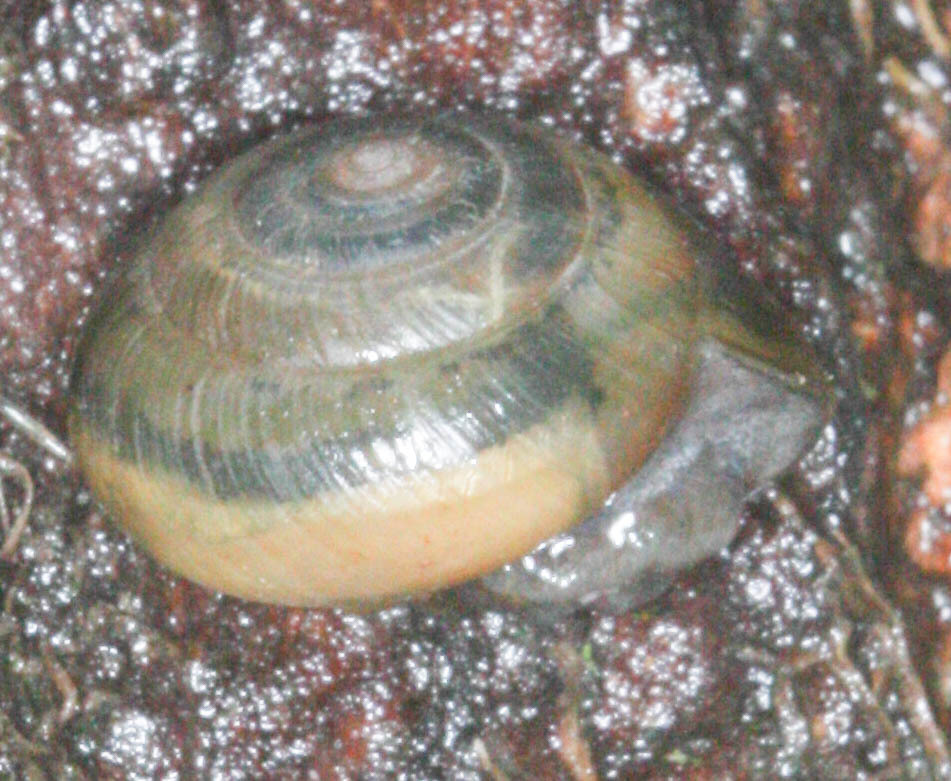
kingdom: Animalia
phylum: Chordata
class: Aves
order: Passeriformes
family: Icteridae
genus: Agelaius
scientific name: Agelaius phoeniceus
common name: Red-winged blackbird
